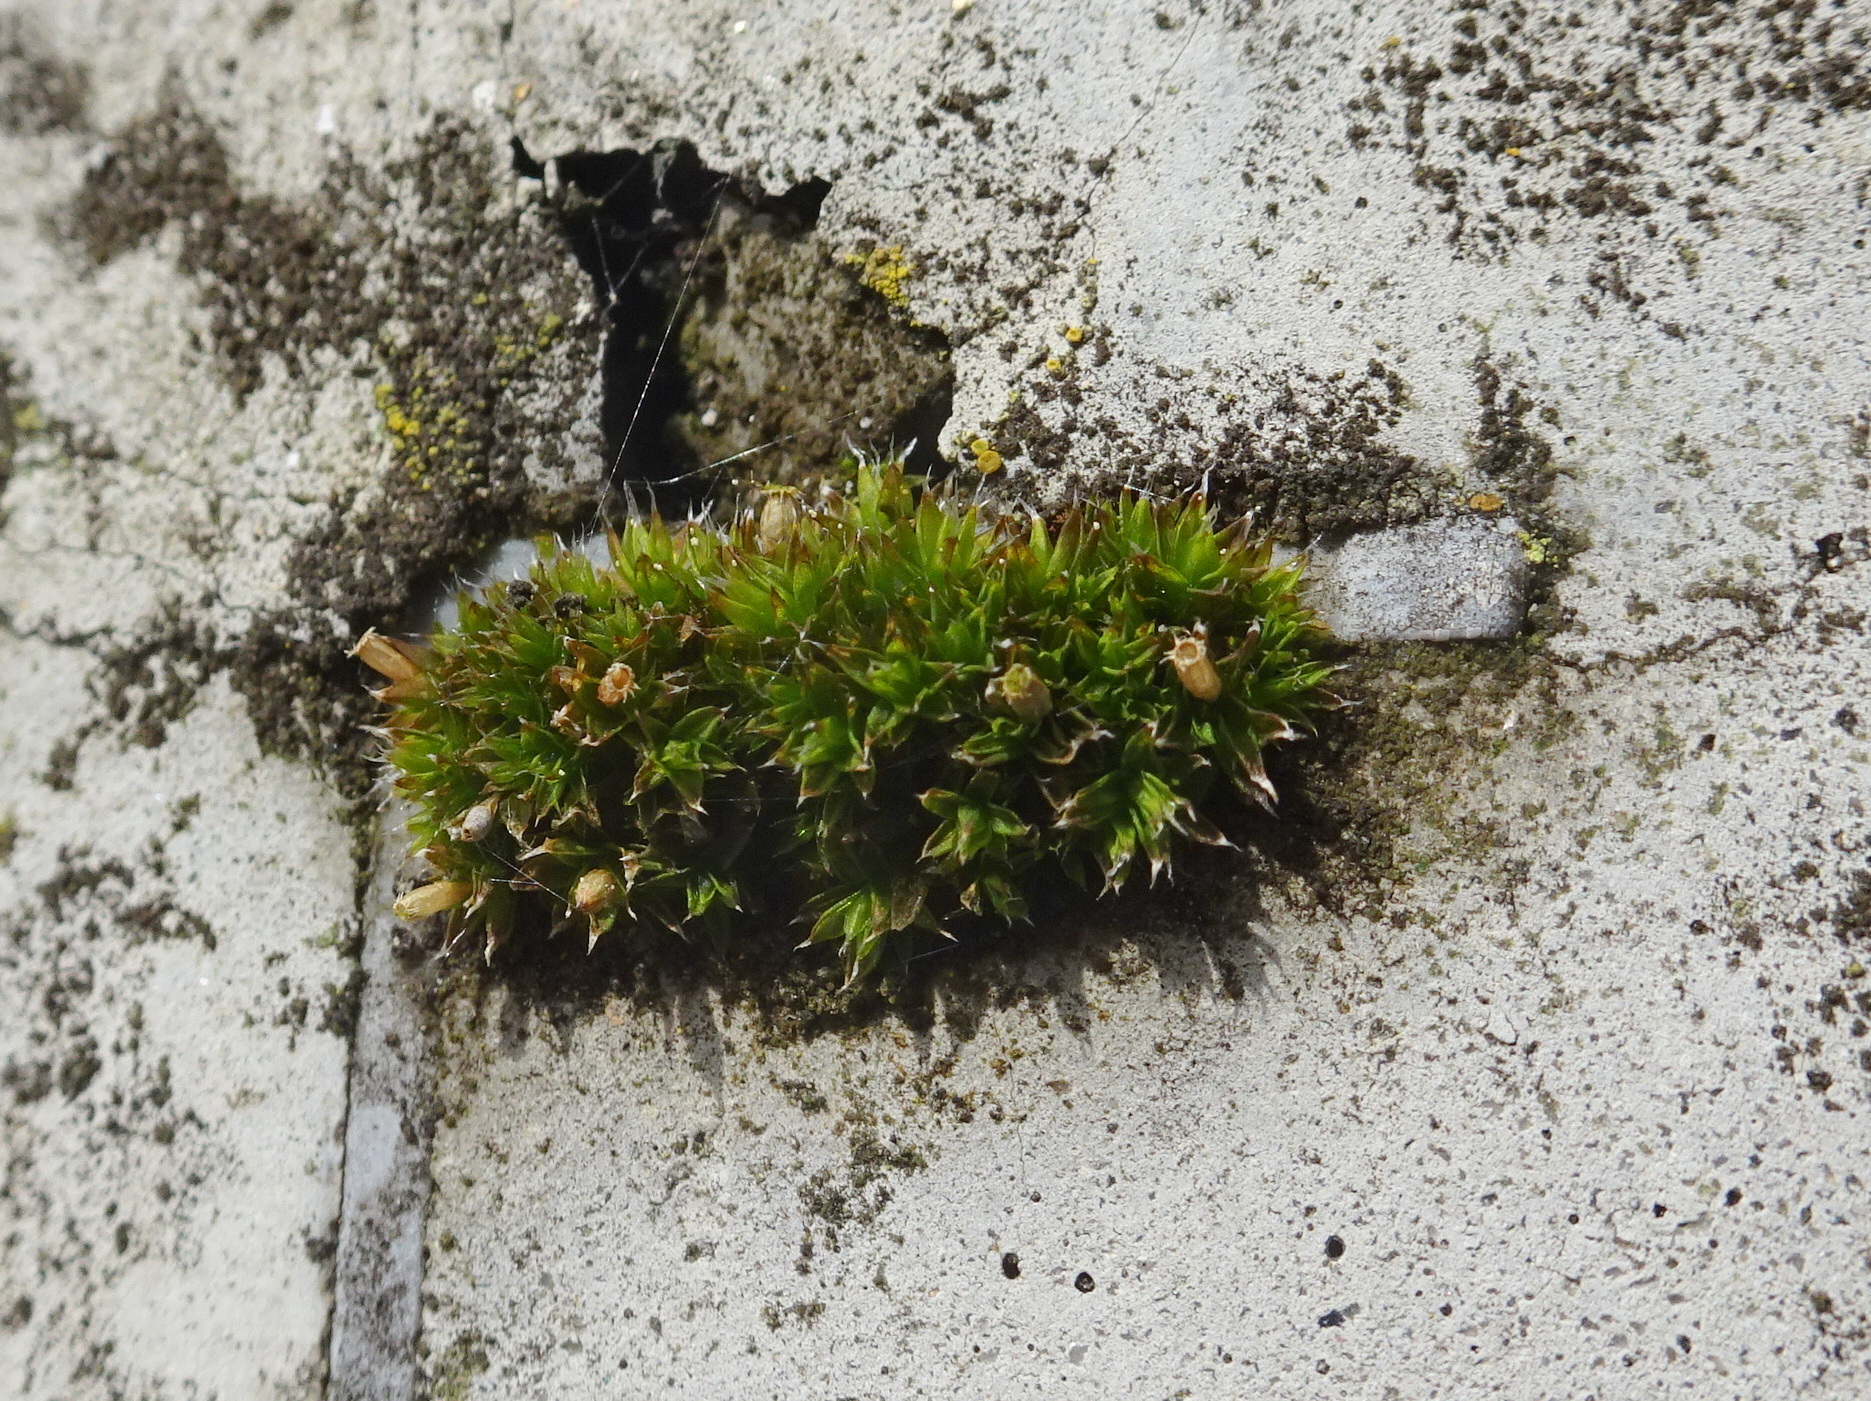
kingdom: Plantae
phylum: Bryophyta
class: Bryopsida
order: Orthotrichales
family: Orthotrichaceae
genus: Orthotrichum
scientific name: Orthotrichum diaphanum
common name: White-tipped bristle-moss
